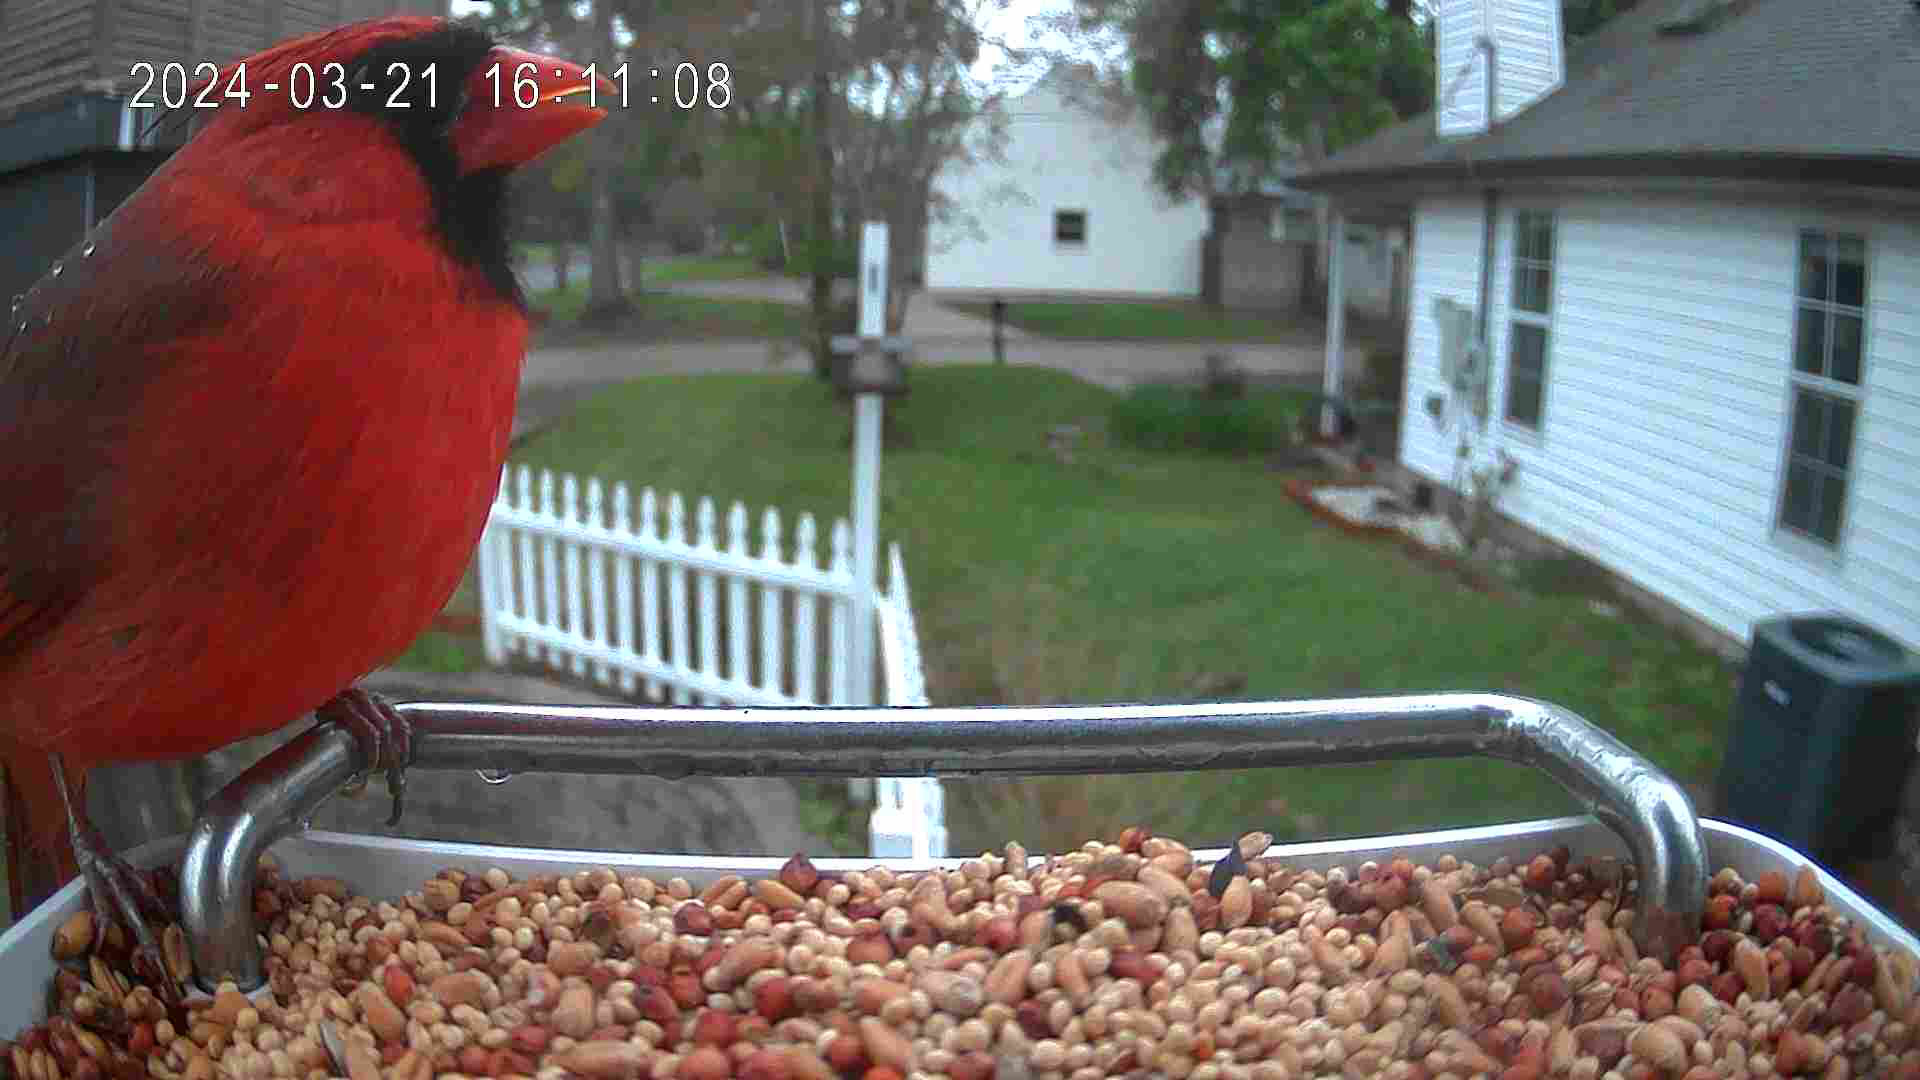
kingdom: Animalia
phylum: Chordata
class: Aves
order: Passeriformes
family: Cardinalidae
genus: Cardinalis
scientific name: Cardinalis cardinalis
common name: Northern cardinal
